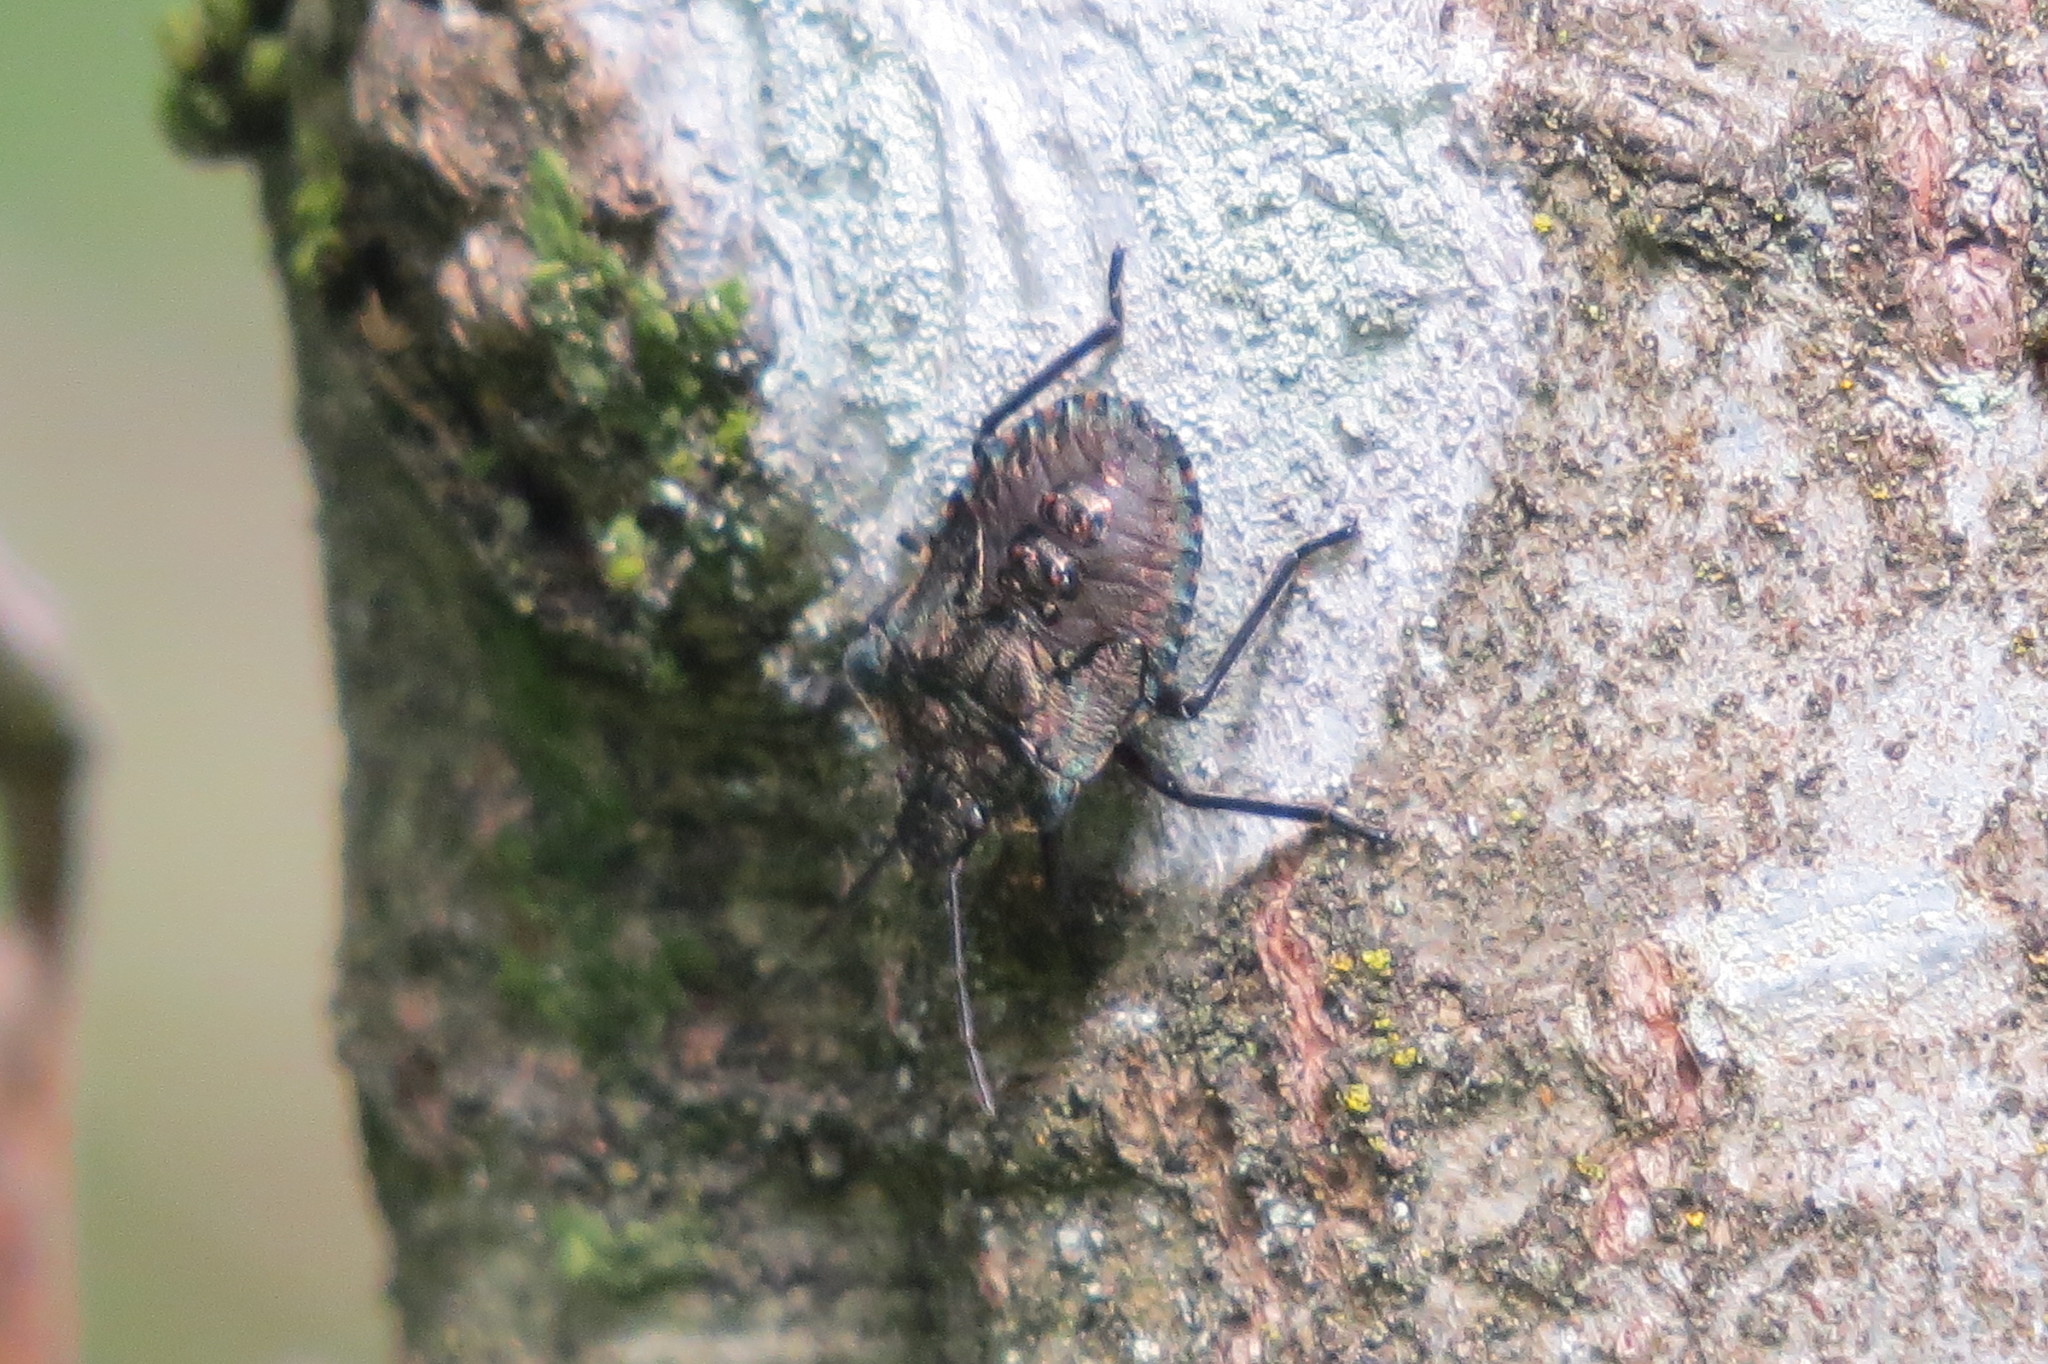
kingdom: Animalia
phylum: Arthropoda
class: Insecta
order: Hemiptera
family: Pentatomidae
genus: Pentatoma
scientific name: Pentatoma rufipes
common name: Forest bug
